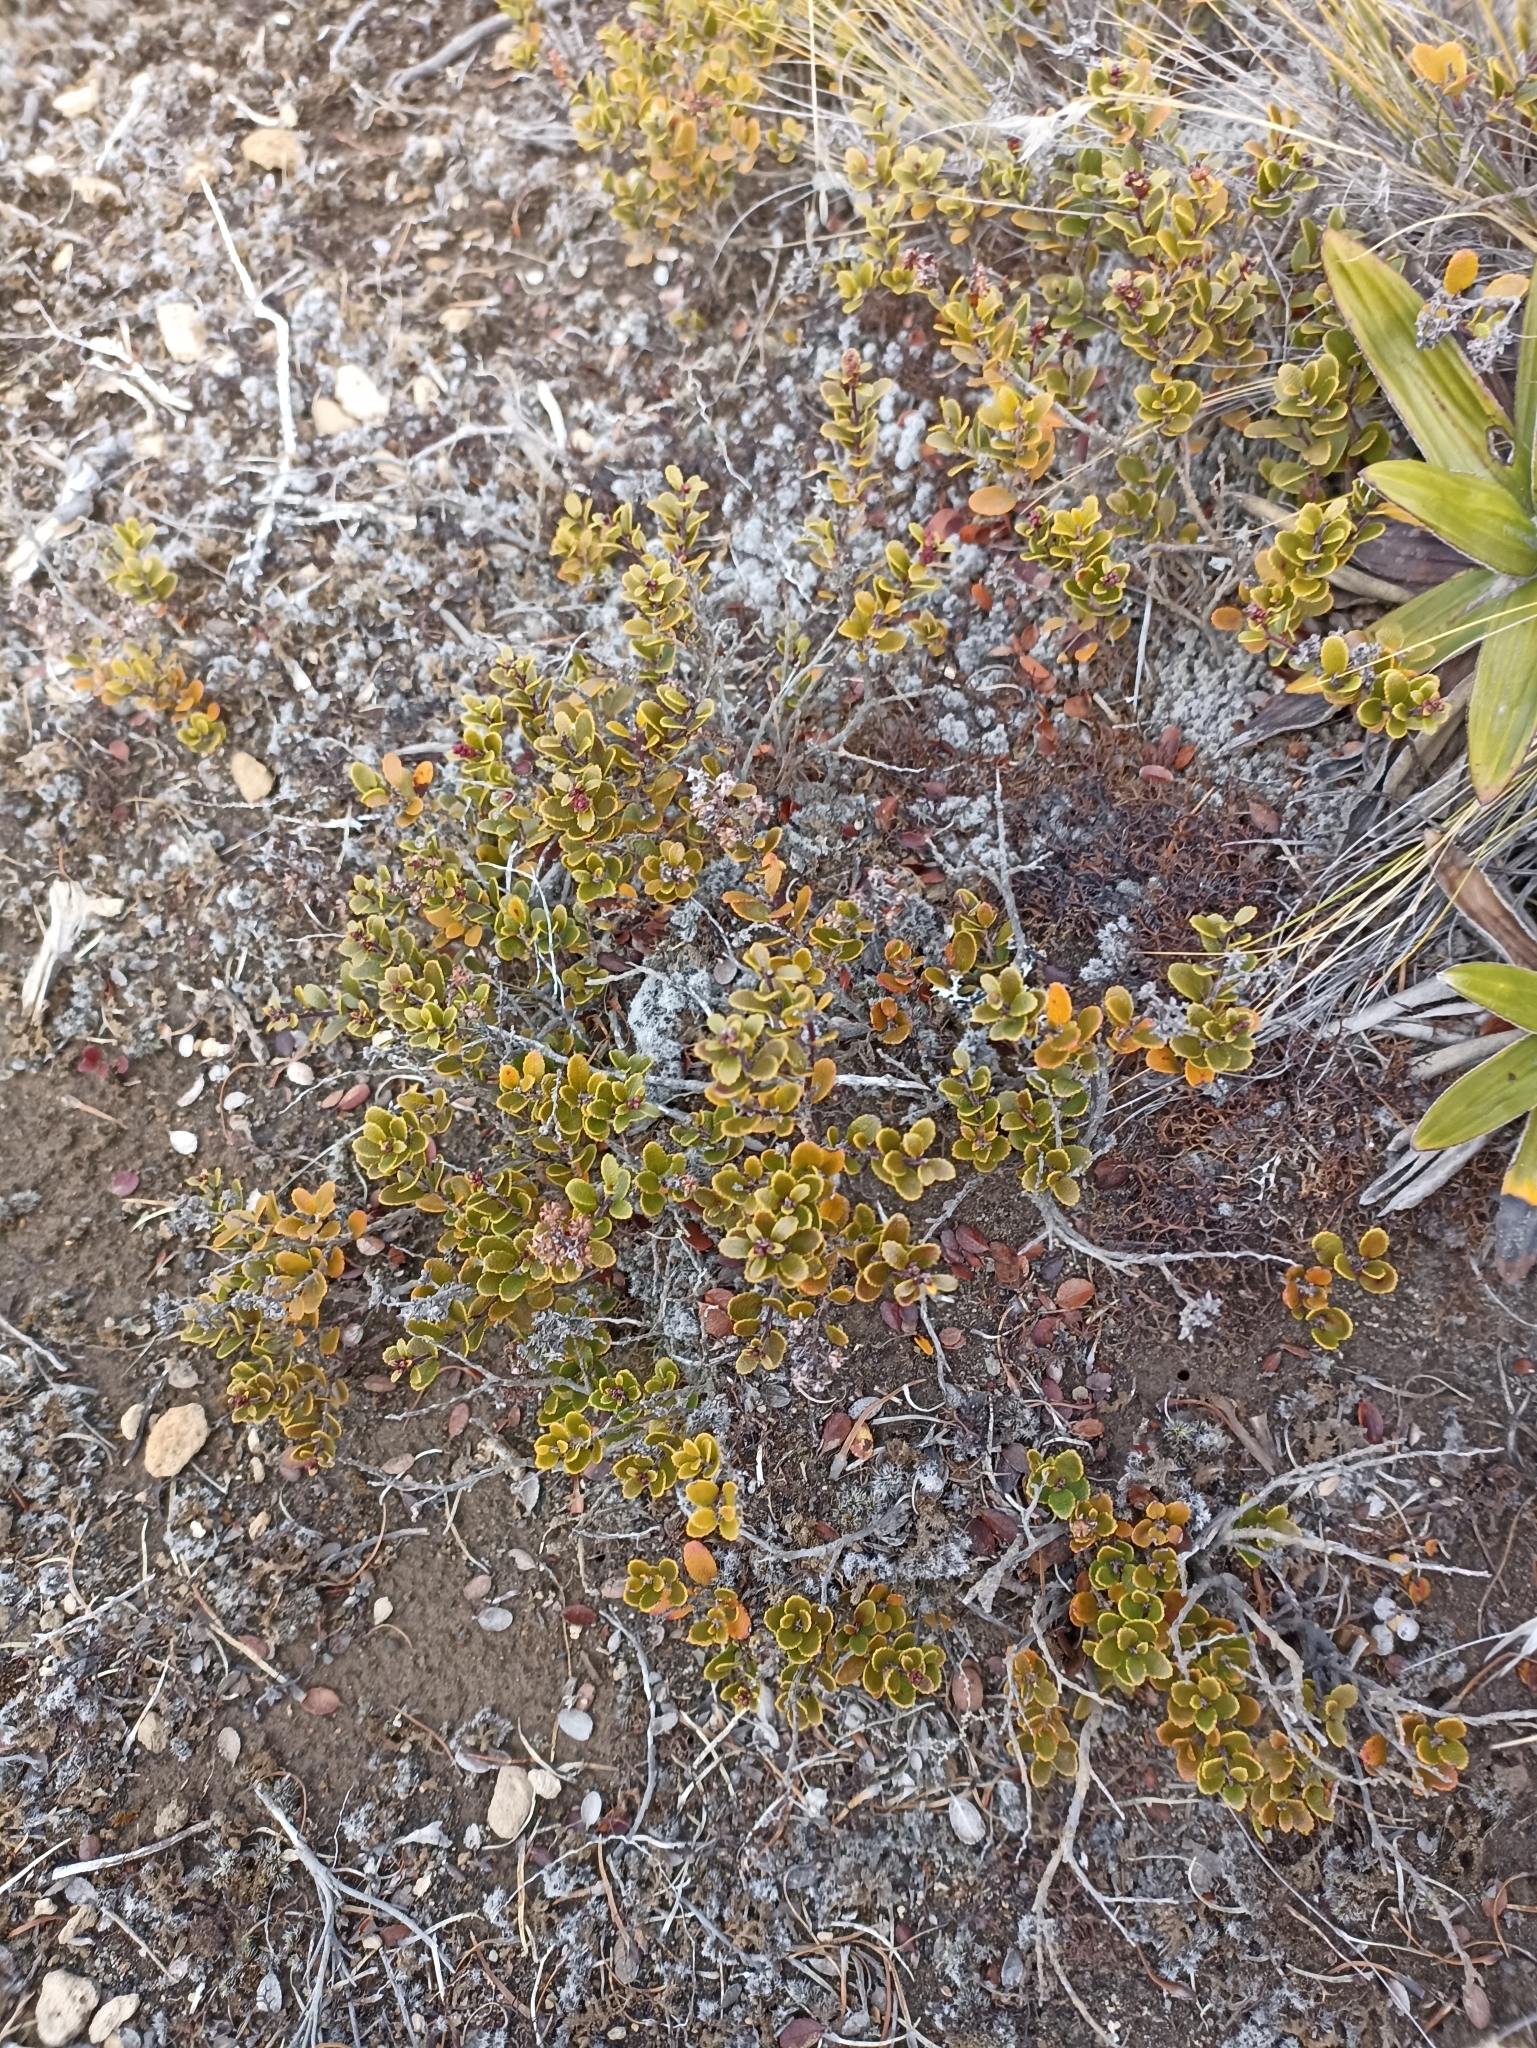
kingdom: Plantae
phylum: Tracheophyta
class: Magnoliopsida
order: Ericales
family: Ericaceae
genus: Gaultheria
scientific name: Gaultheria colensoi
